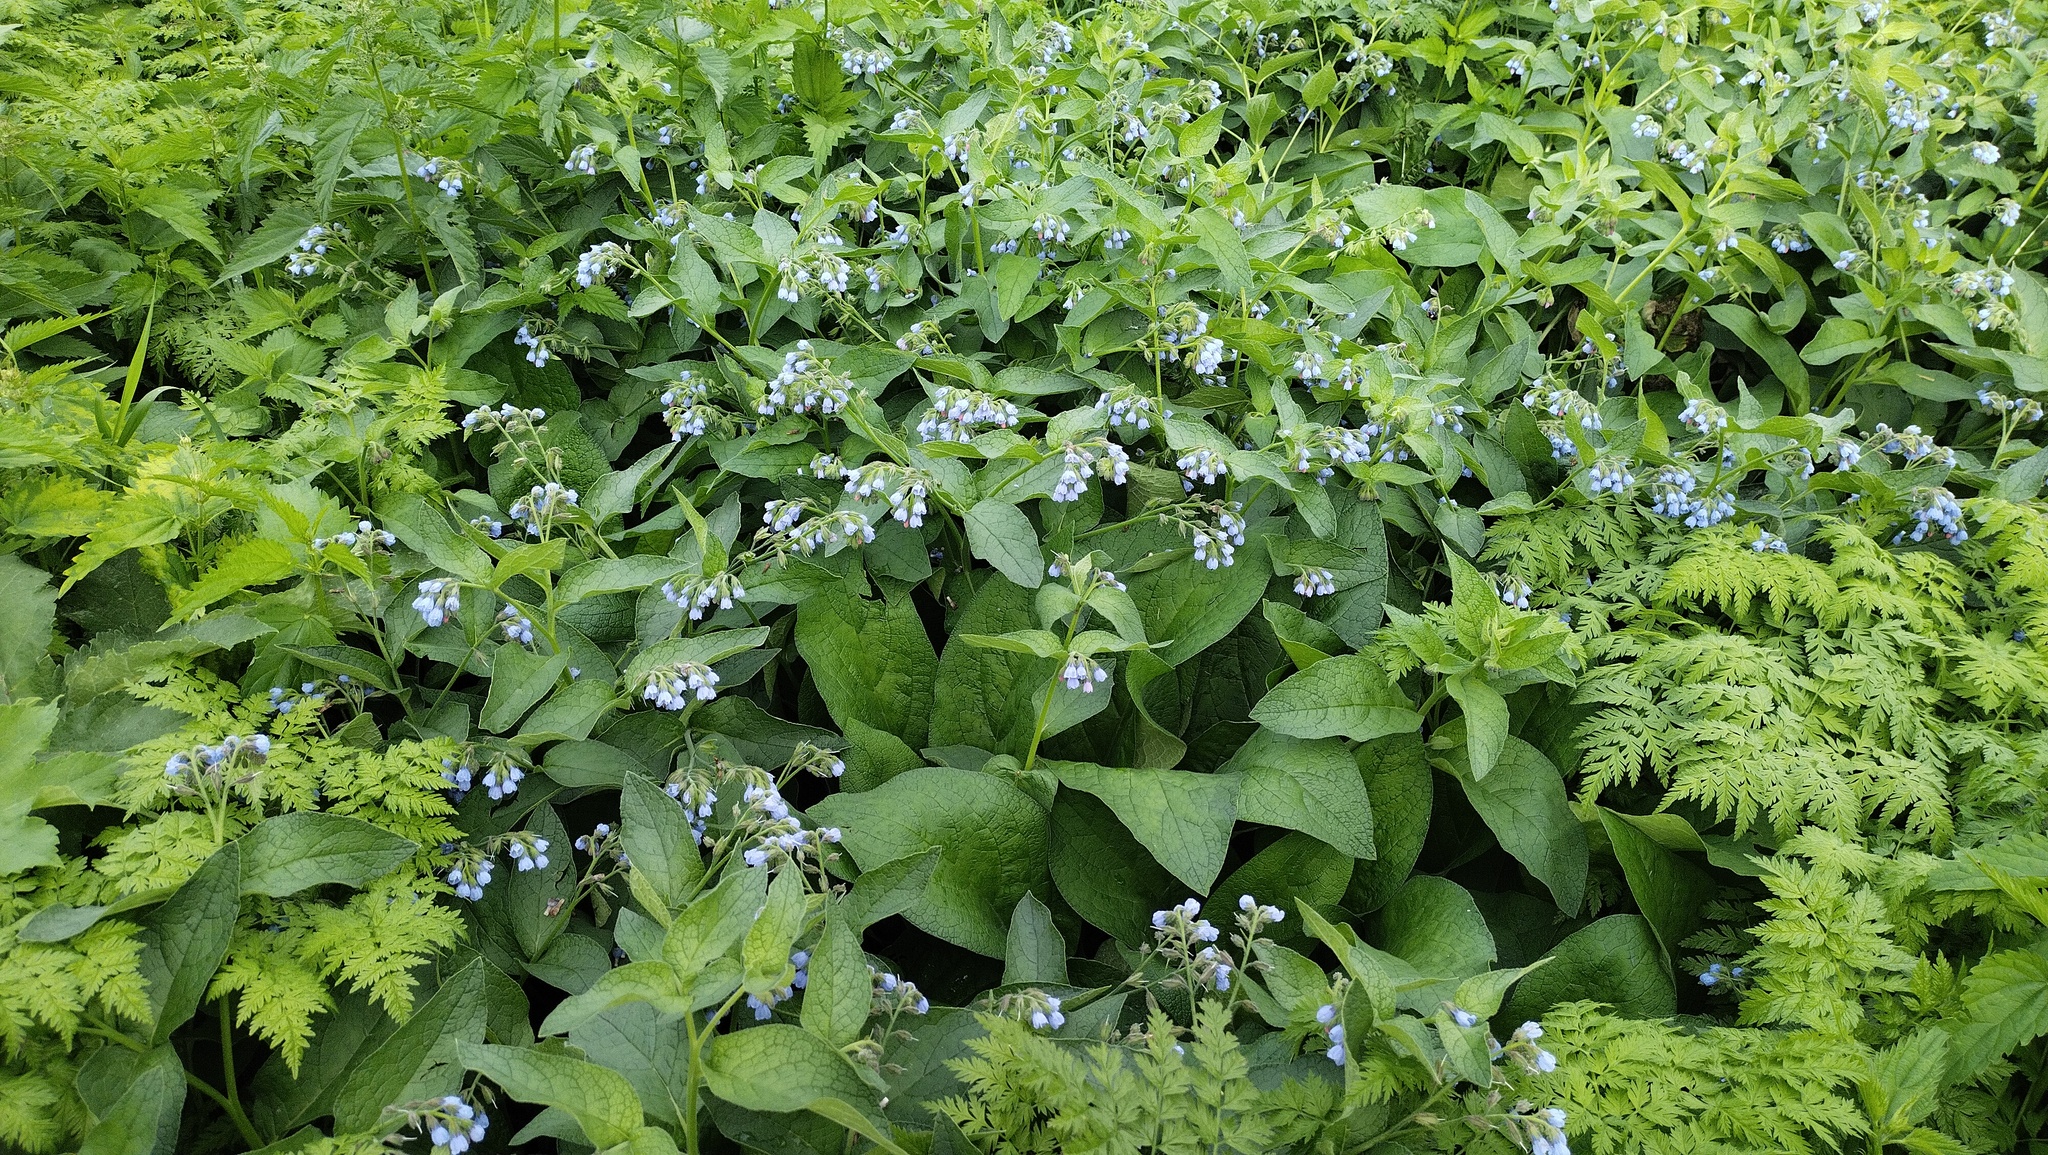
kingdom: Plantae
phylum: Tracheophyta
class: Magnoliopsida
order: Boraginales
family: Boraginaceae
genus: Symphytum
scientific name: Symphytum caucasicum
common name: Caucasian comfrey
